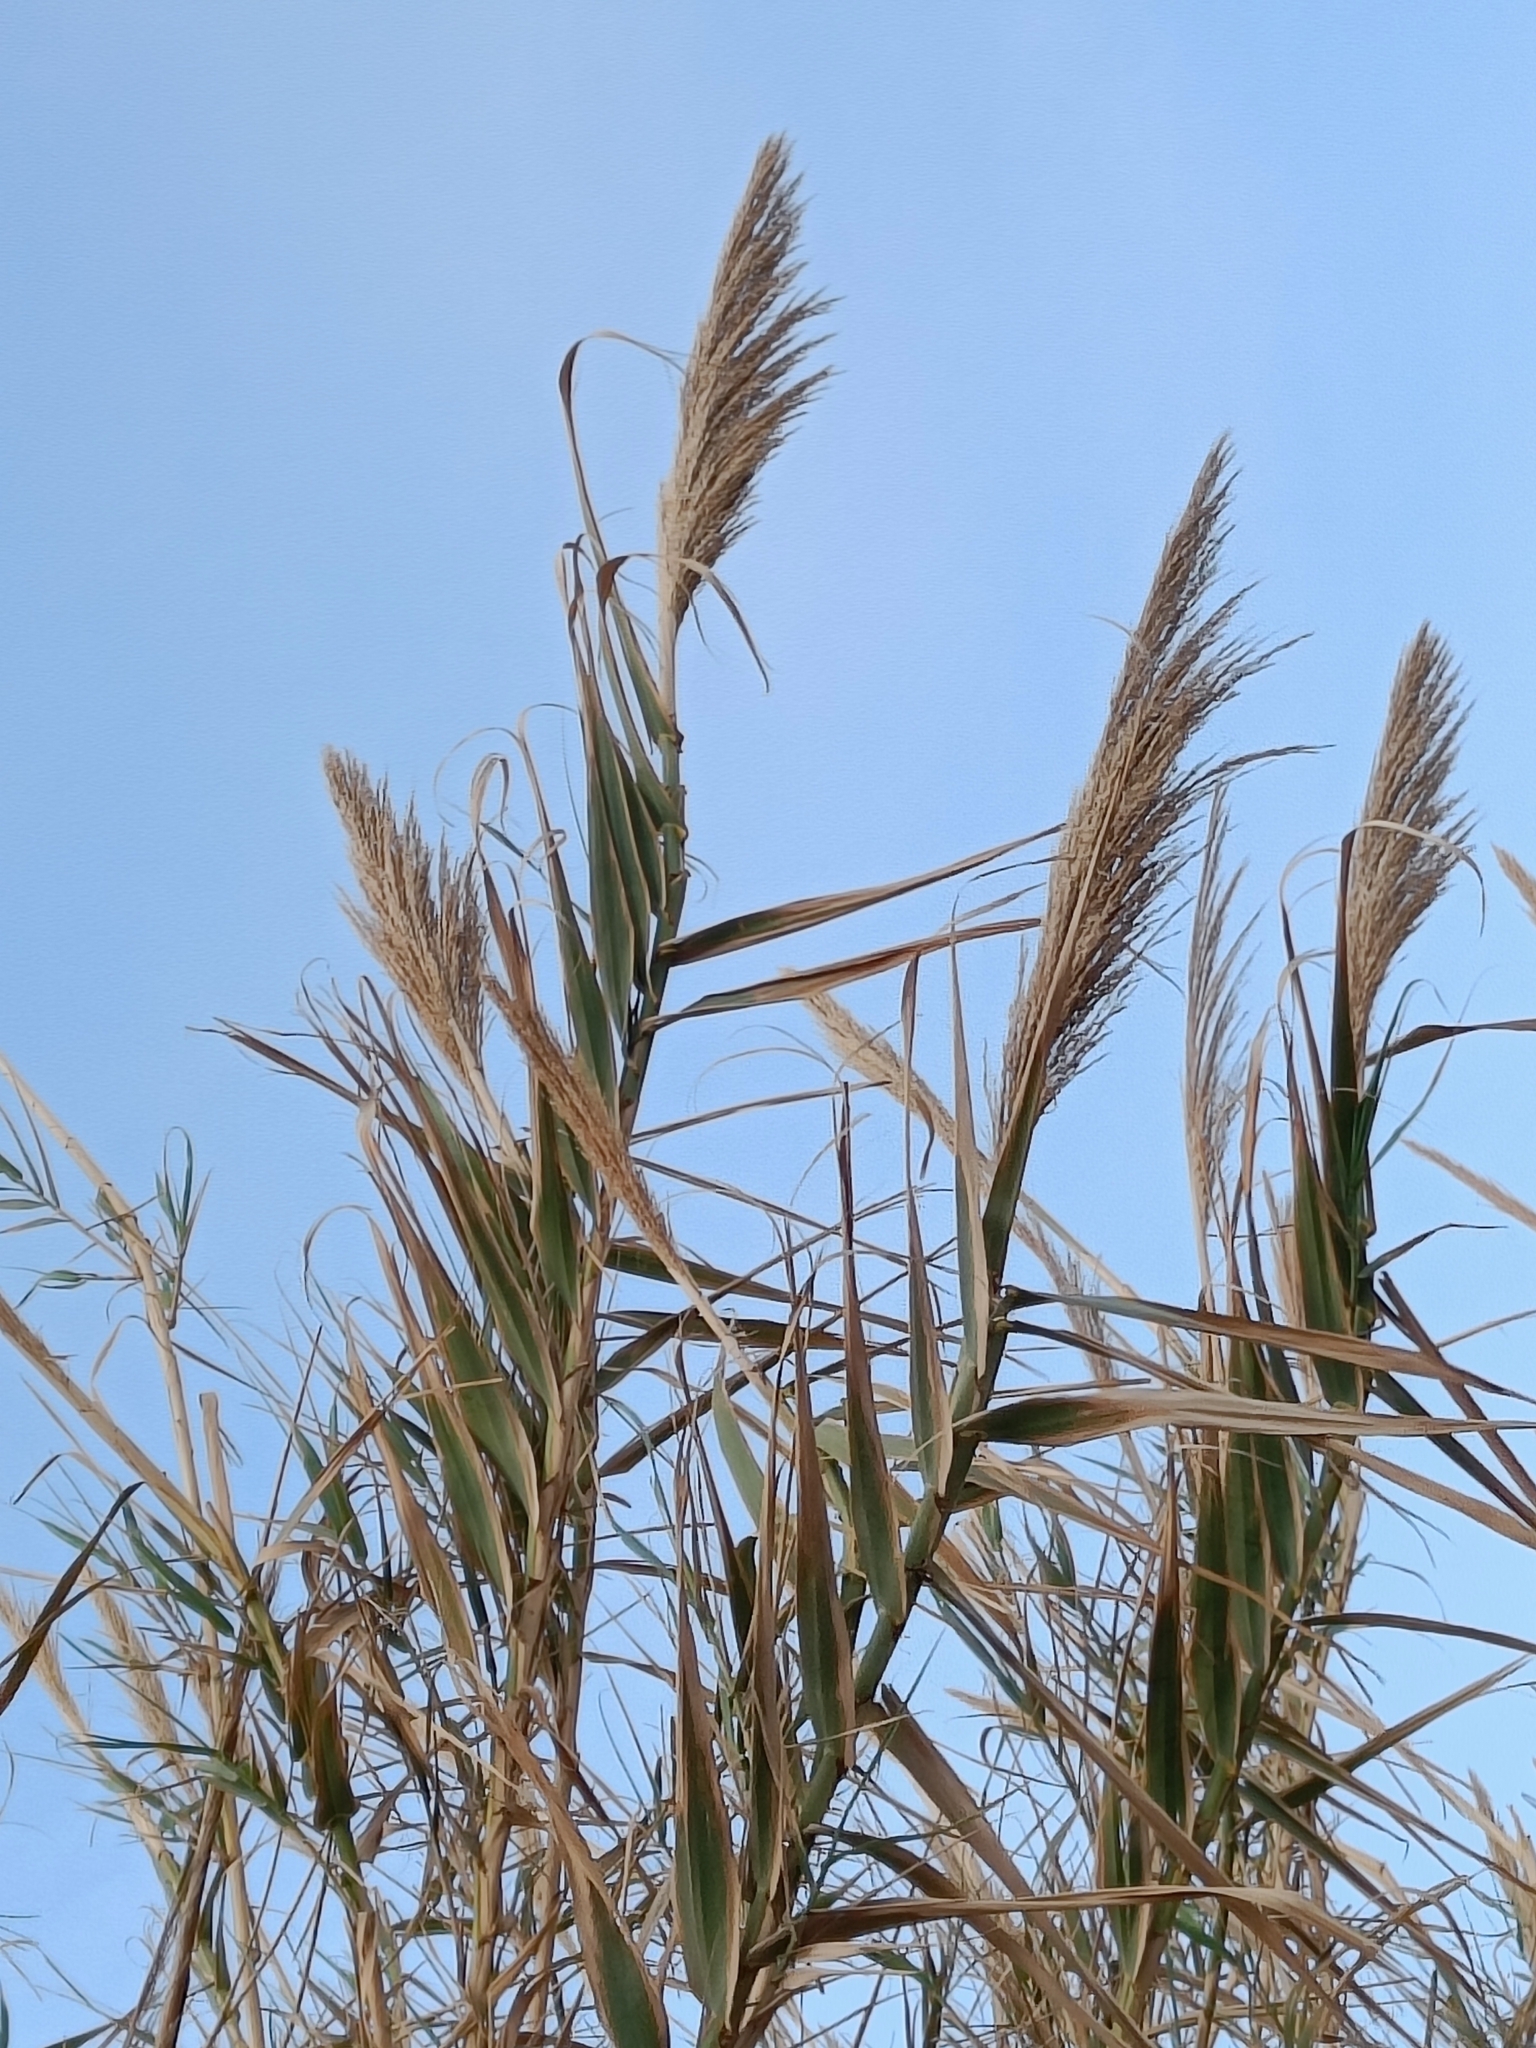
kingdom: Plantae
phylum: Tracheophyta
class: Liliopsida
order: Poales
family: Poaceae
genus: Arundo
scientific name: Arundo donax
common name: Giant reed
